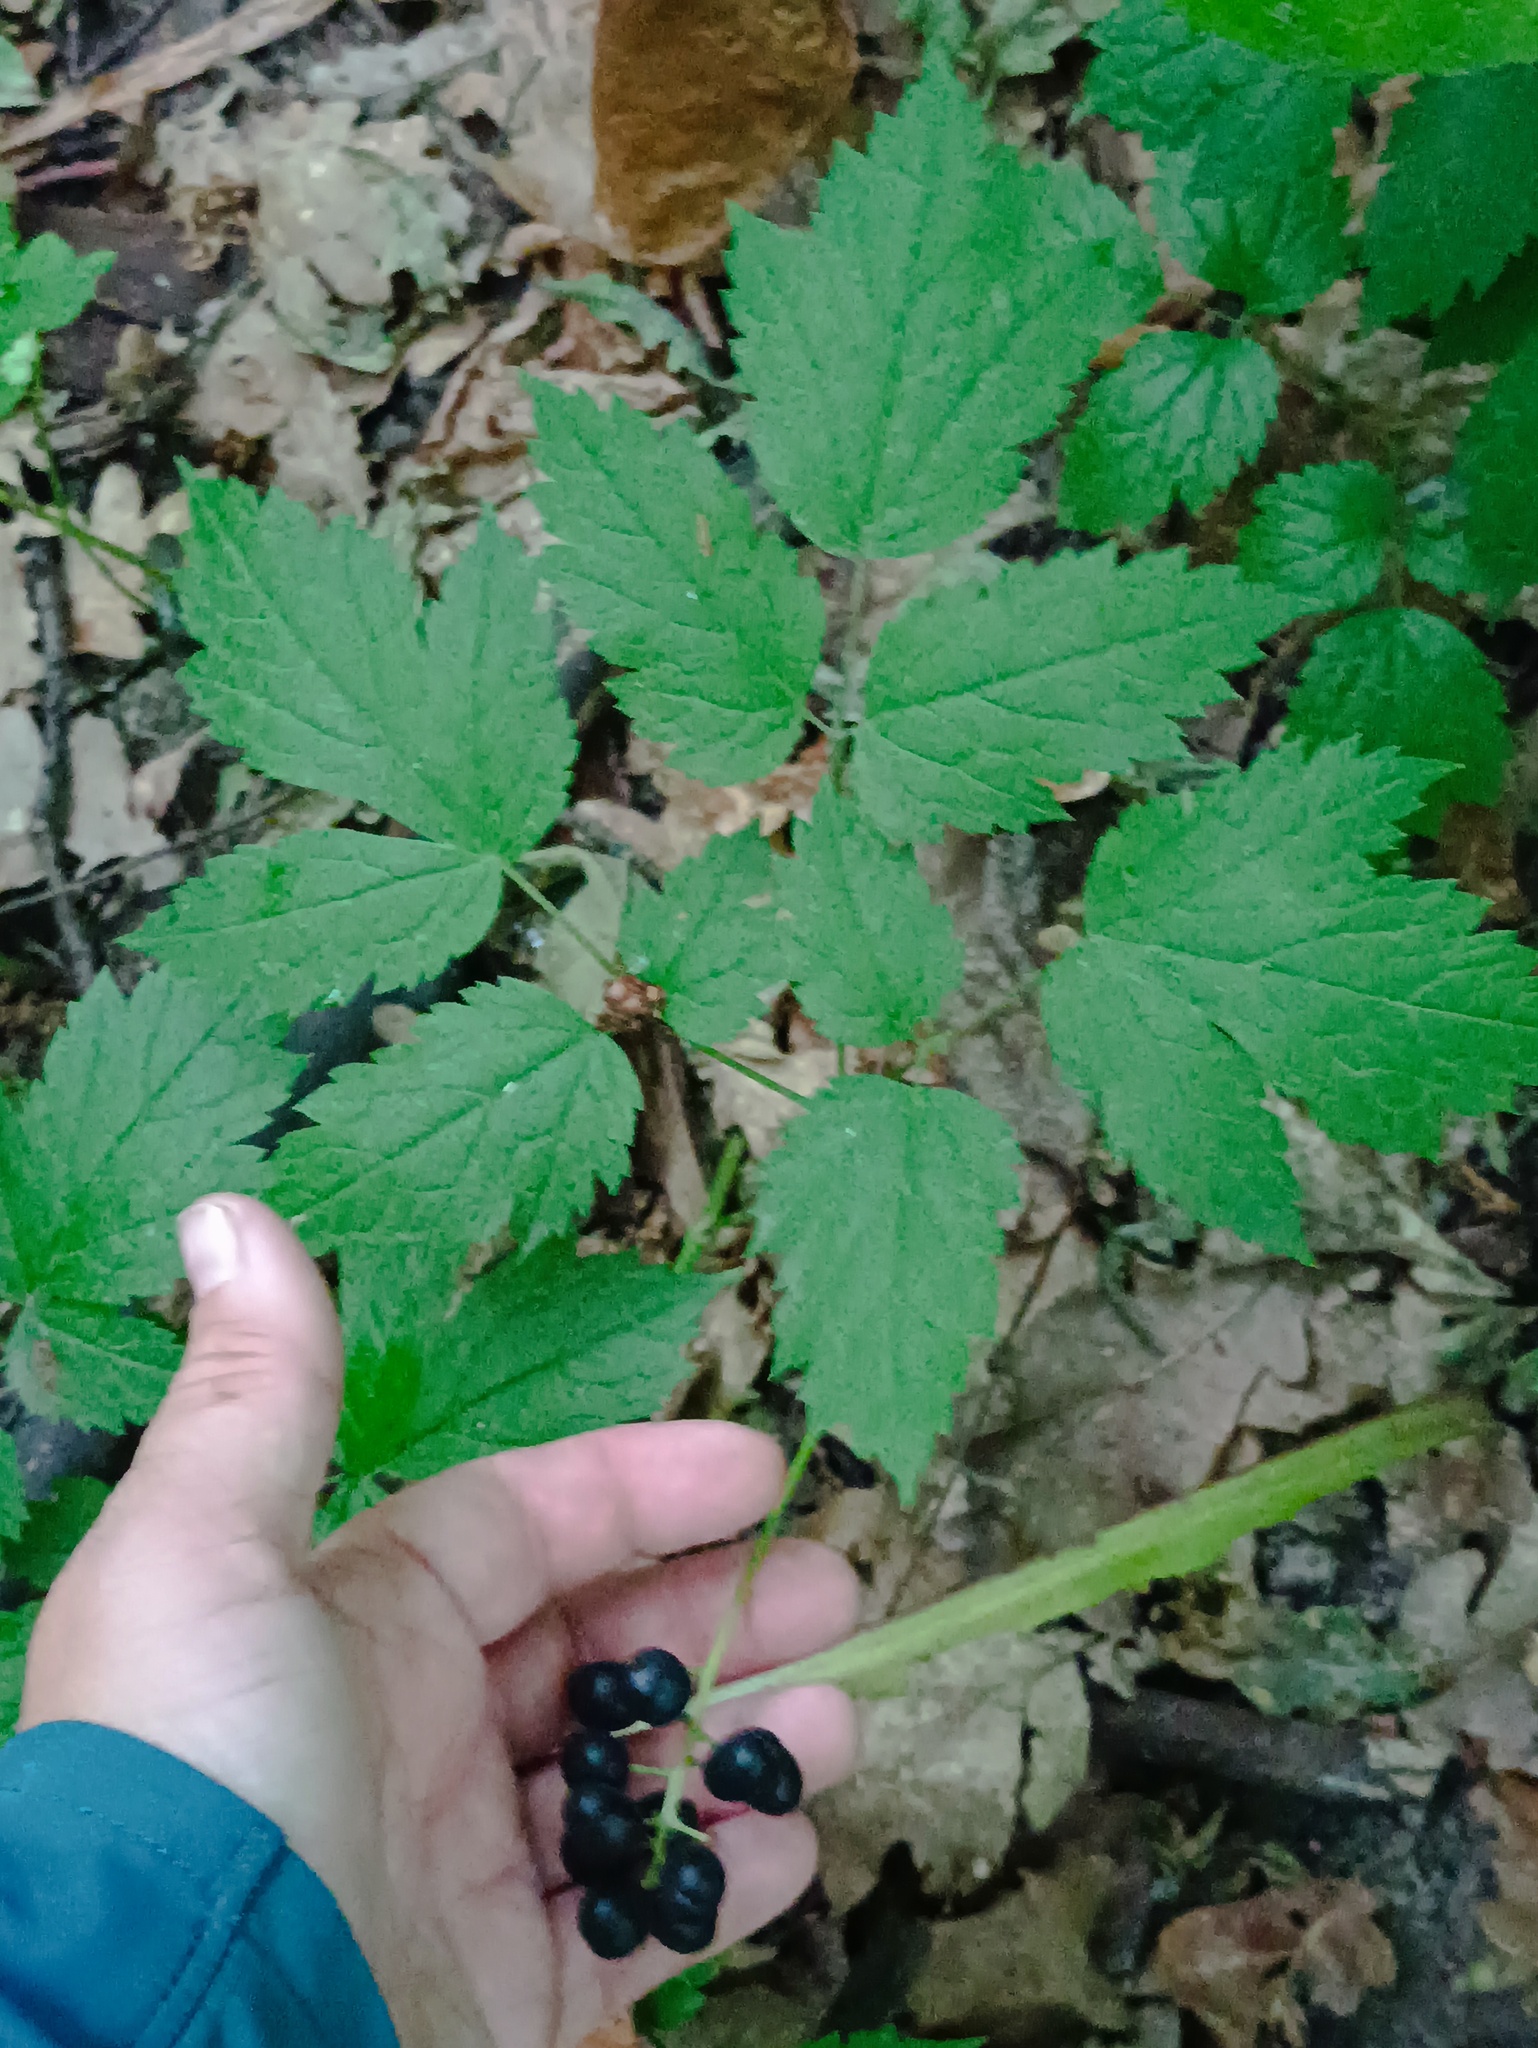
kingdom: Plantae
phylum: Tracheophyta
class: Magnoliopsida
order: Ranunculales
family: Ranunculaceae
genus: Actaea
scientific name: Actaea spicata
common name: Baneberry
